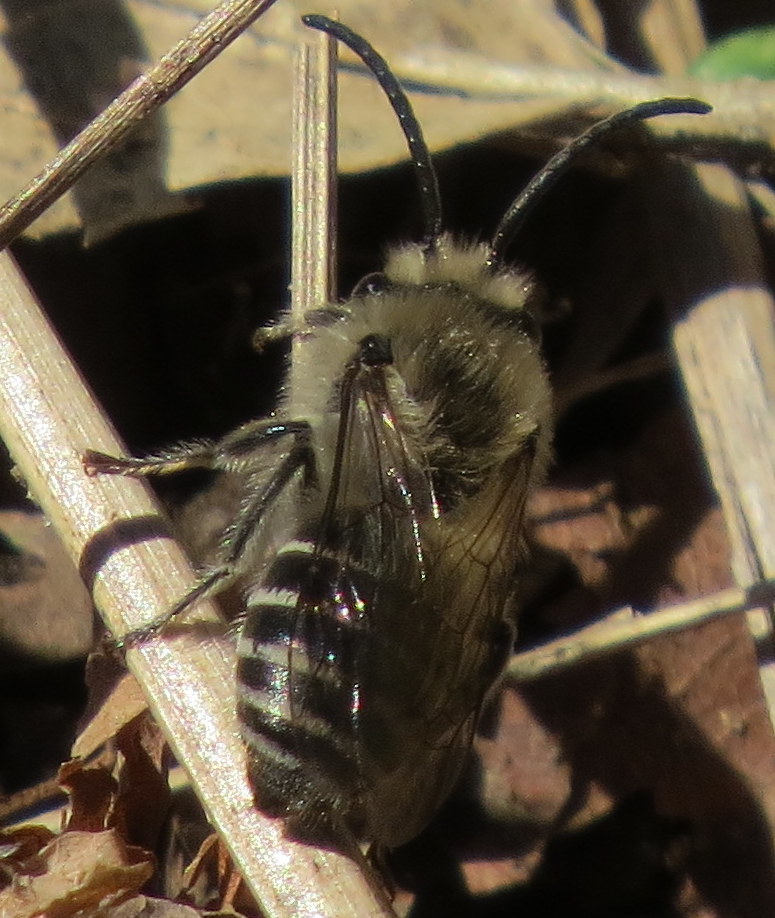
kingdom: Animalia
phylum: Arthropoda
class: Insecta
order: Hymenoptera
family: Colletidae
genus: Colletes
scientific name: Colletes inaequalis
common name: Unequal cellophane bee
